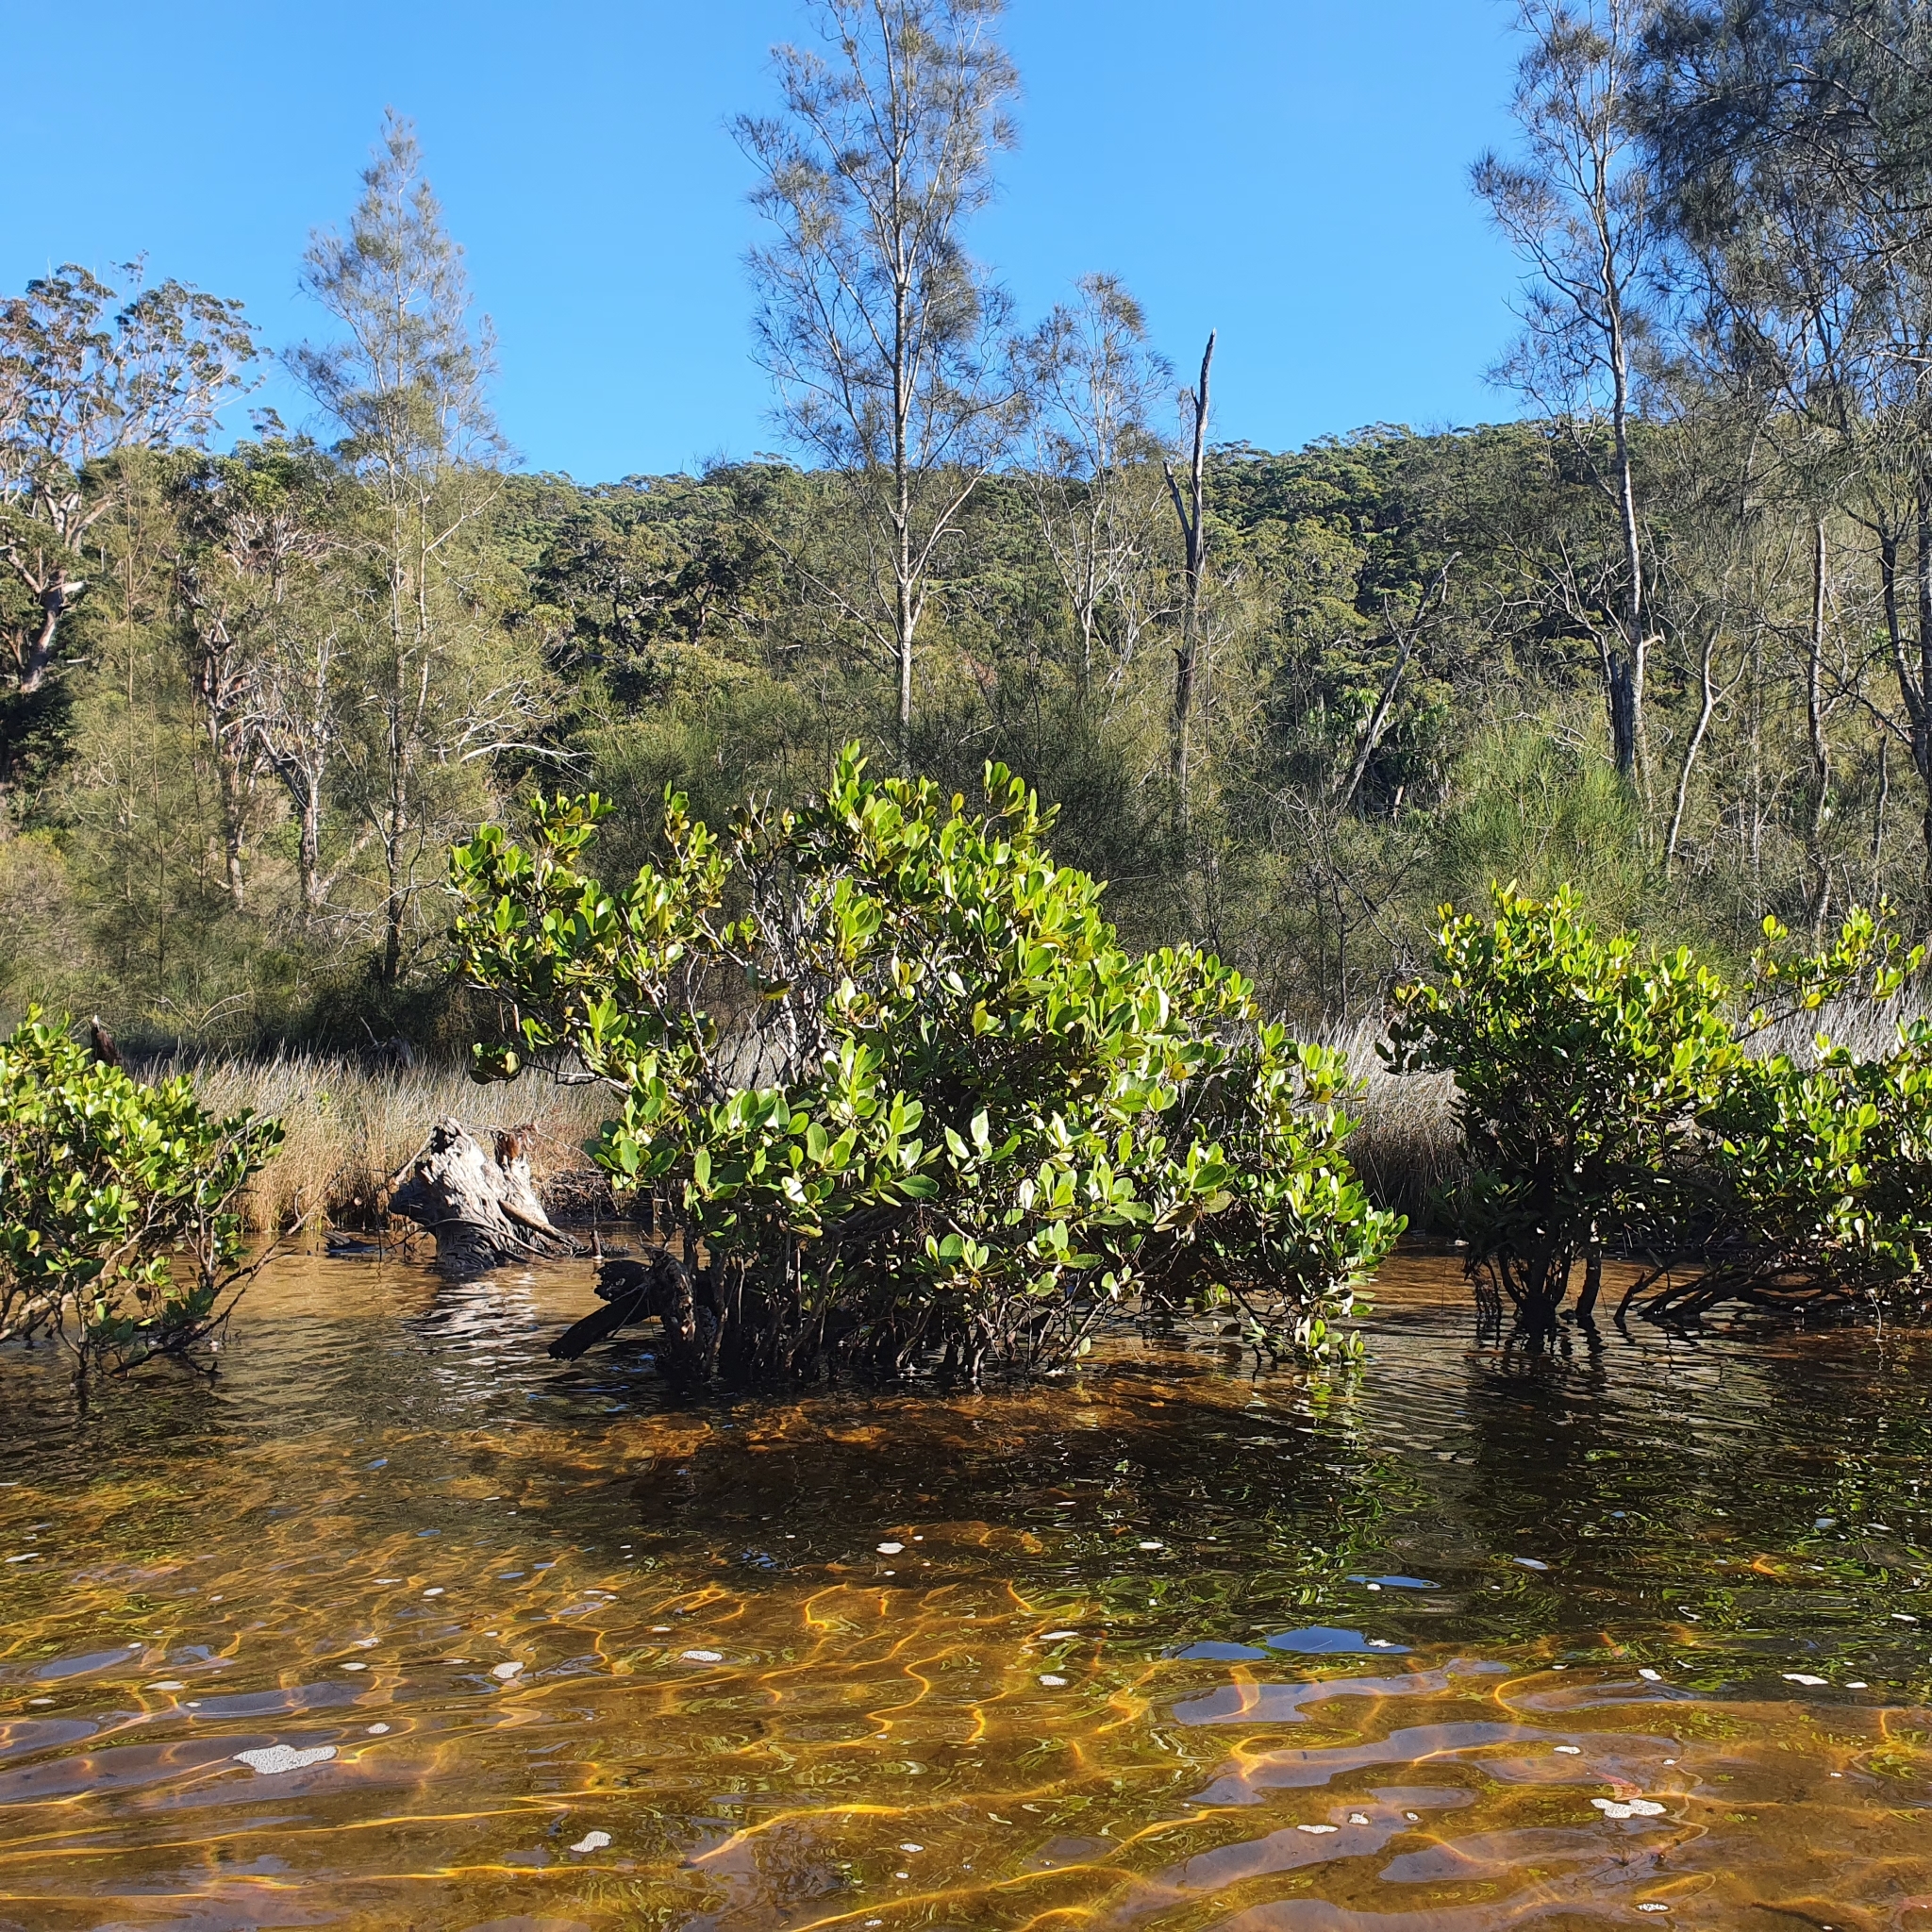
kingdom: Plantae
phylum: Tracheophyta
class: Magnoliopsida
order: Ericales
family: Primulaceae
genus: Aegiceras
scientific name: Aegiceras corniculatum
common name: River mangrove
